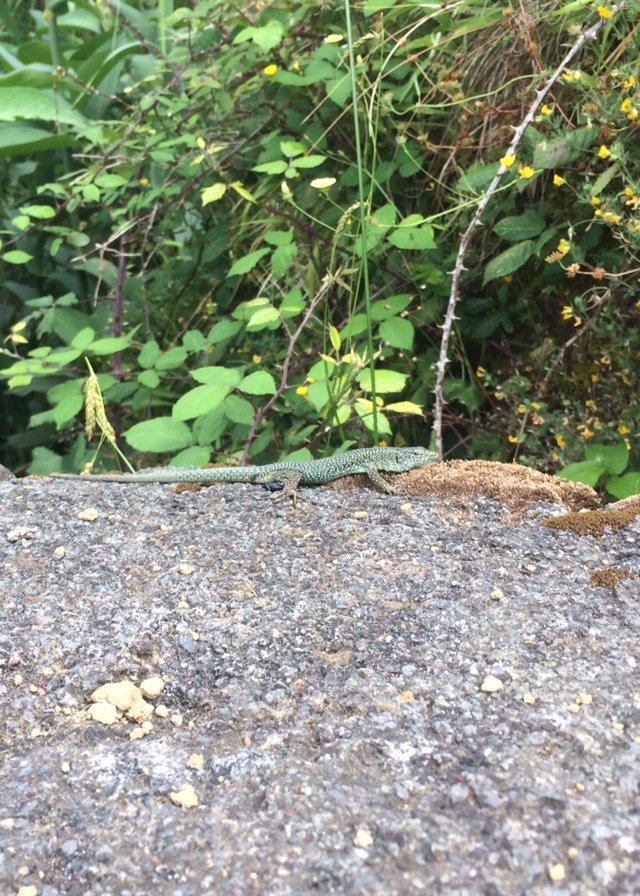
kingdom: Animalia
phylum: Chordata
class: Squamata
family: Lacertidae
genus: Teira
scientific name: Teira dugesii
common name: Madeira lizard
